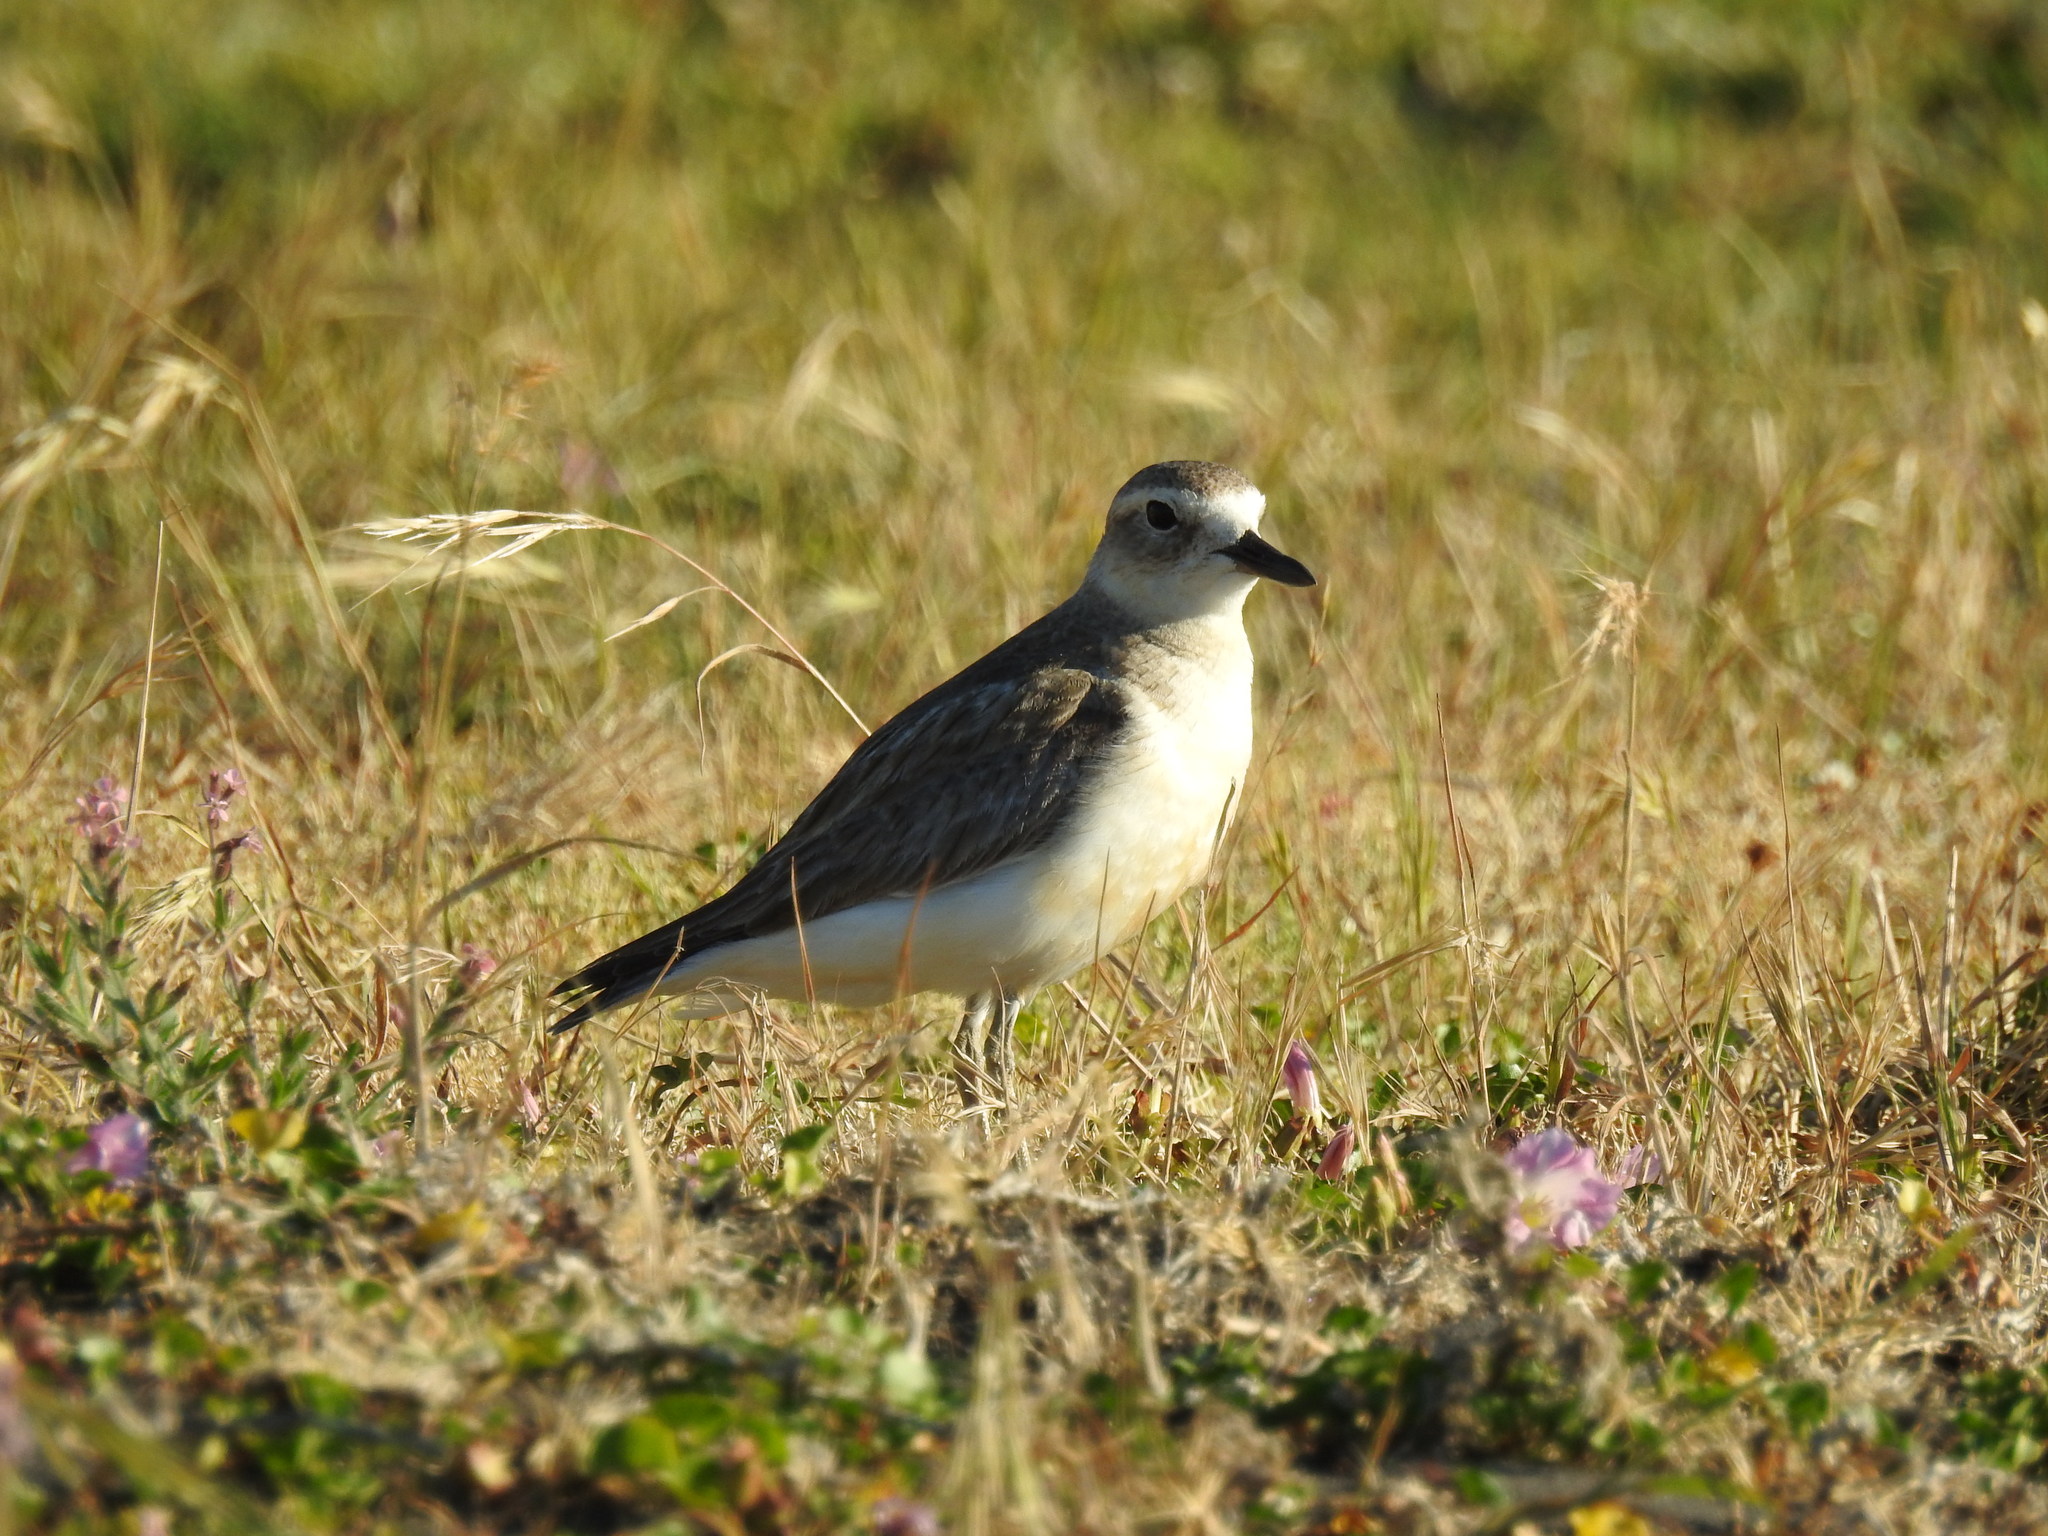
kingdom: Animalia
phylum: Chordata
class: Aves
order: Charadriiformes
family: Charadriidae
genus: Anarhynchus
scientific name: Anarhynchus
